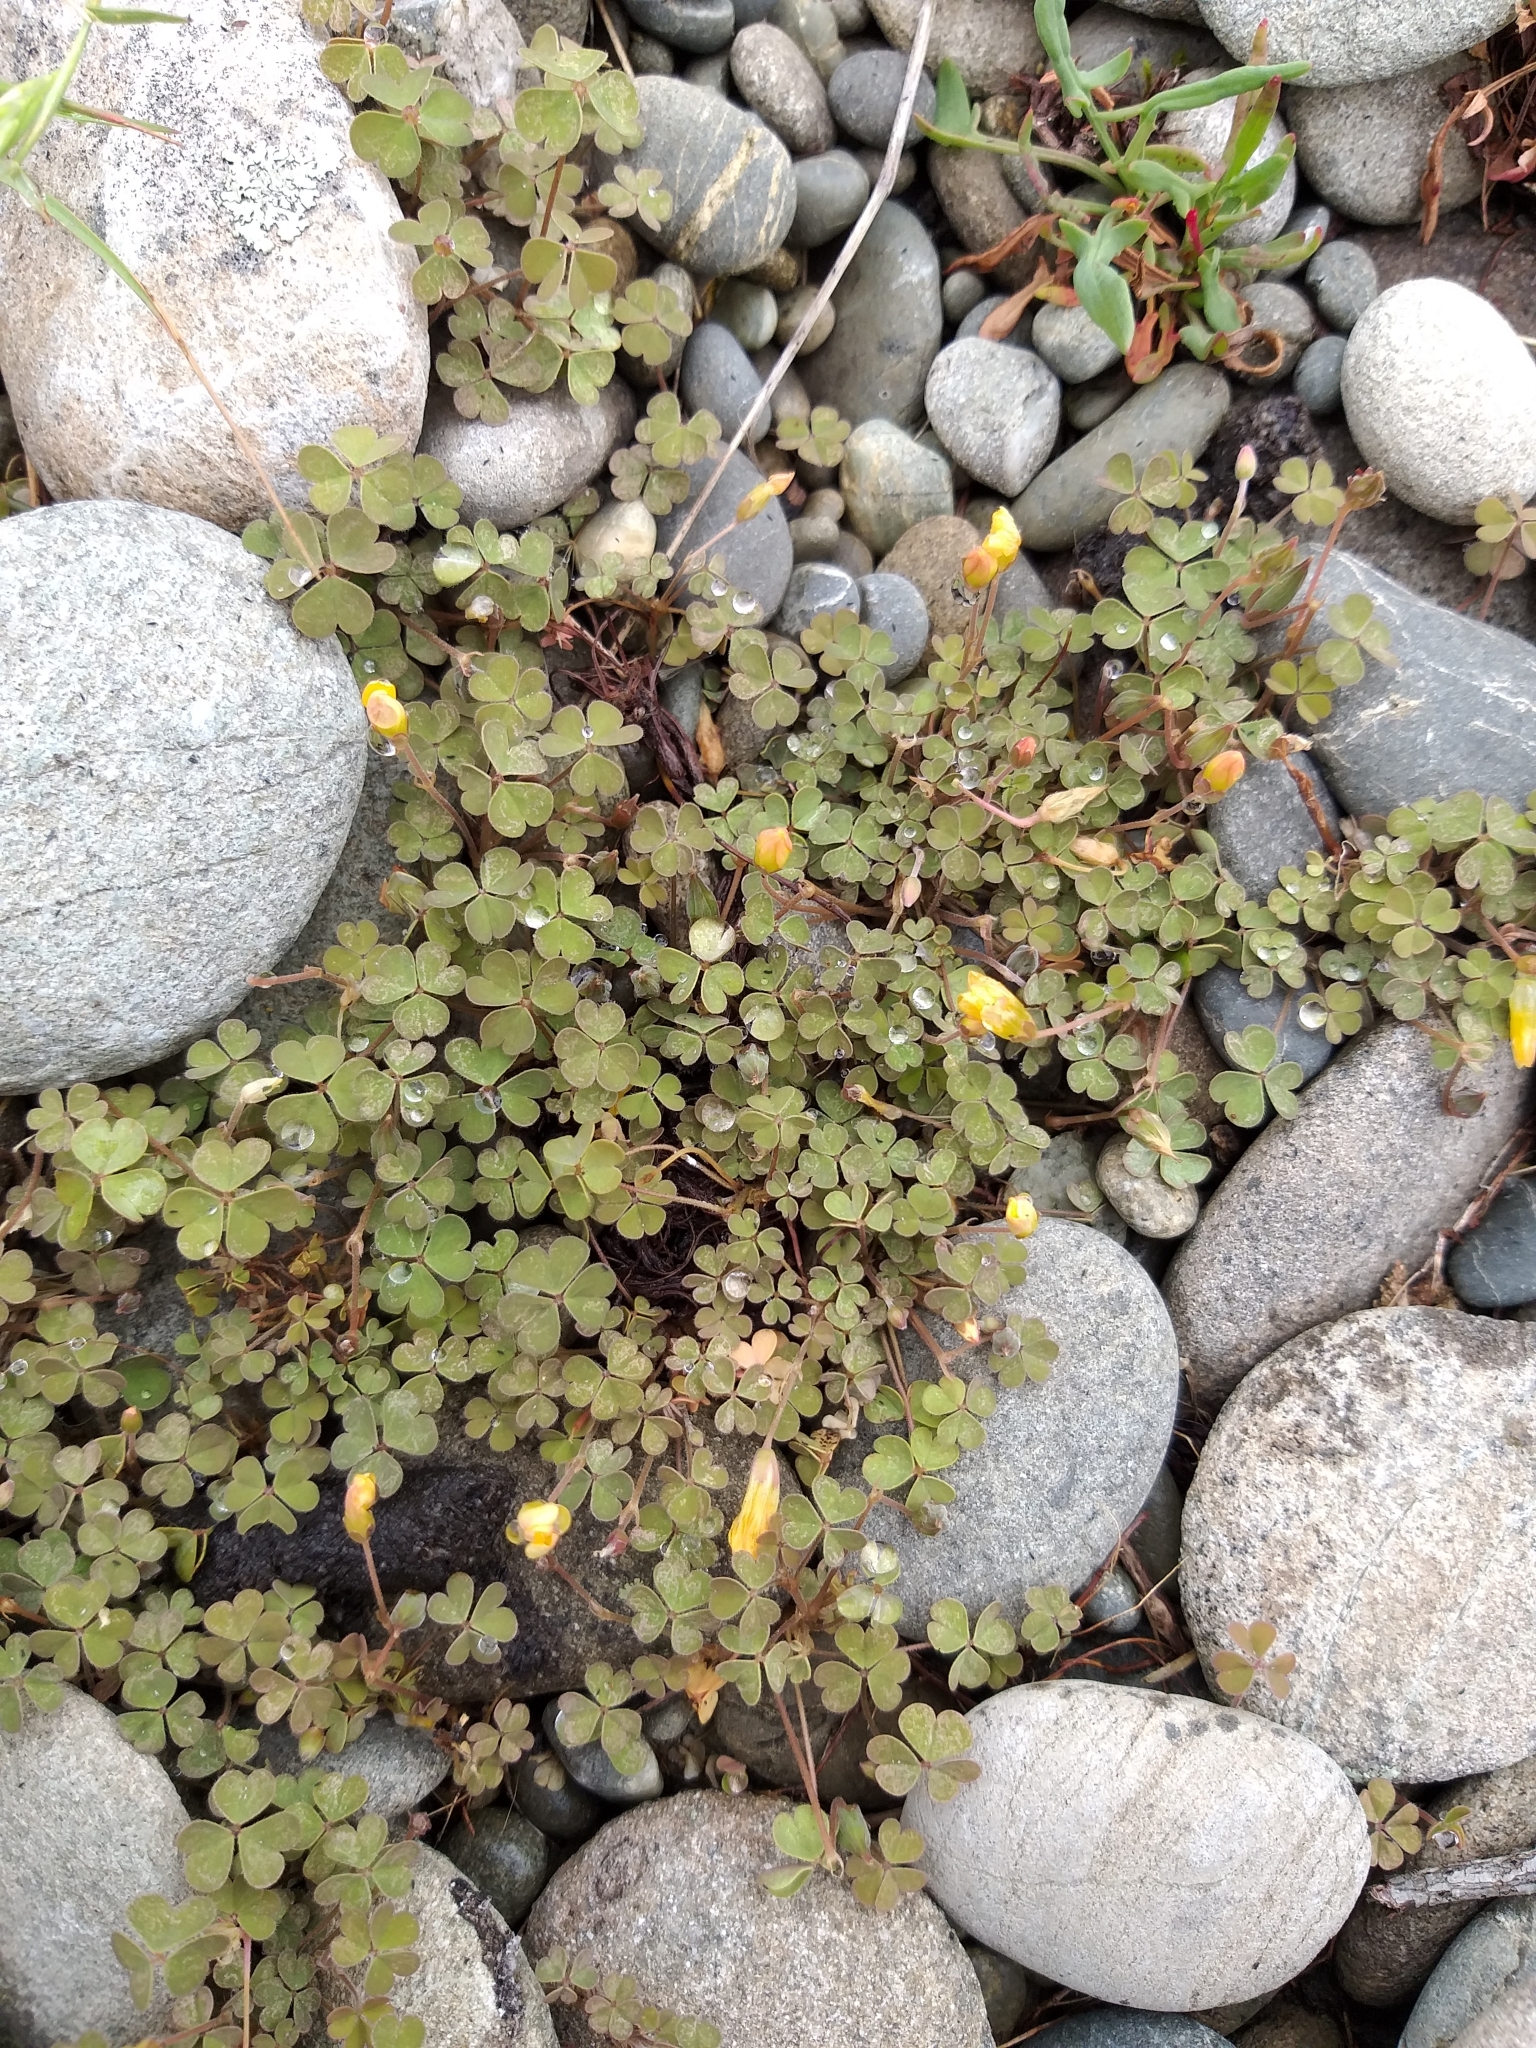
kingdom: Plantae
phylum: Tracheophyta
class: Magnoliopsida
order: Oxalidales
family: Oxalidaceae
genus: Oxalis
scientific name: Oxalis exilis
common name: Least yellow-sorrel
